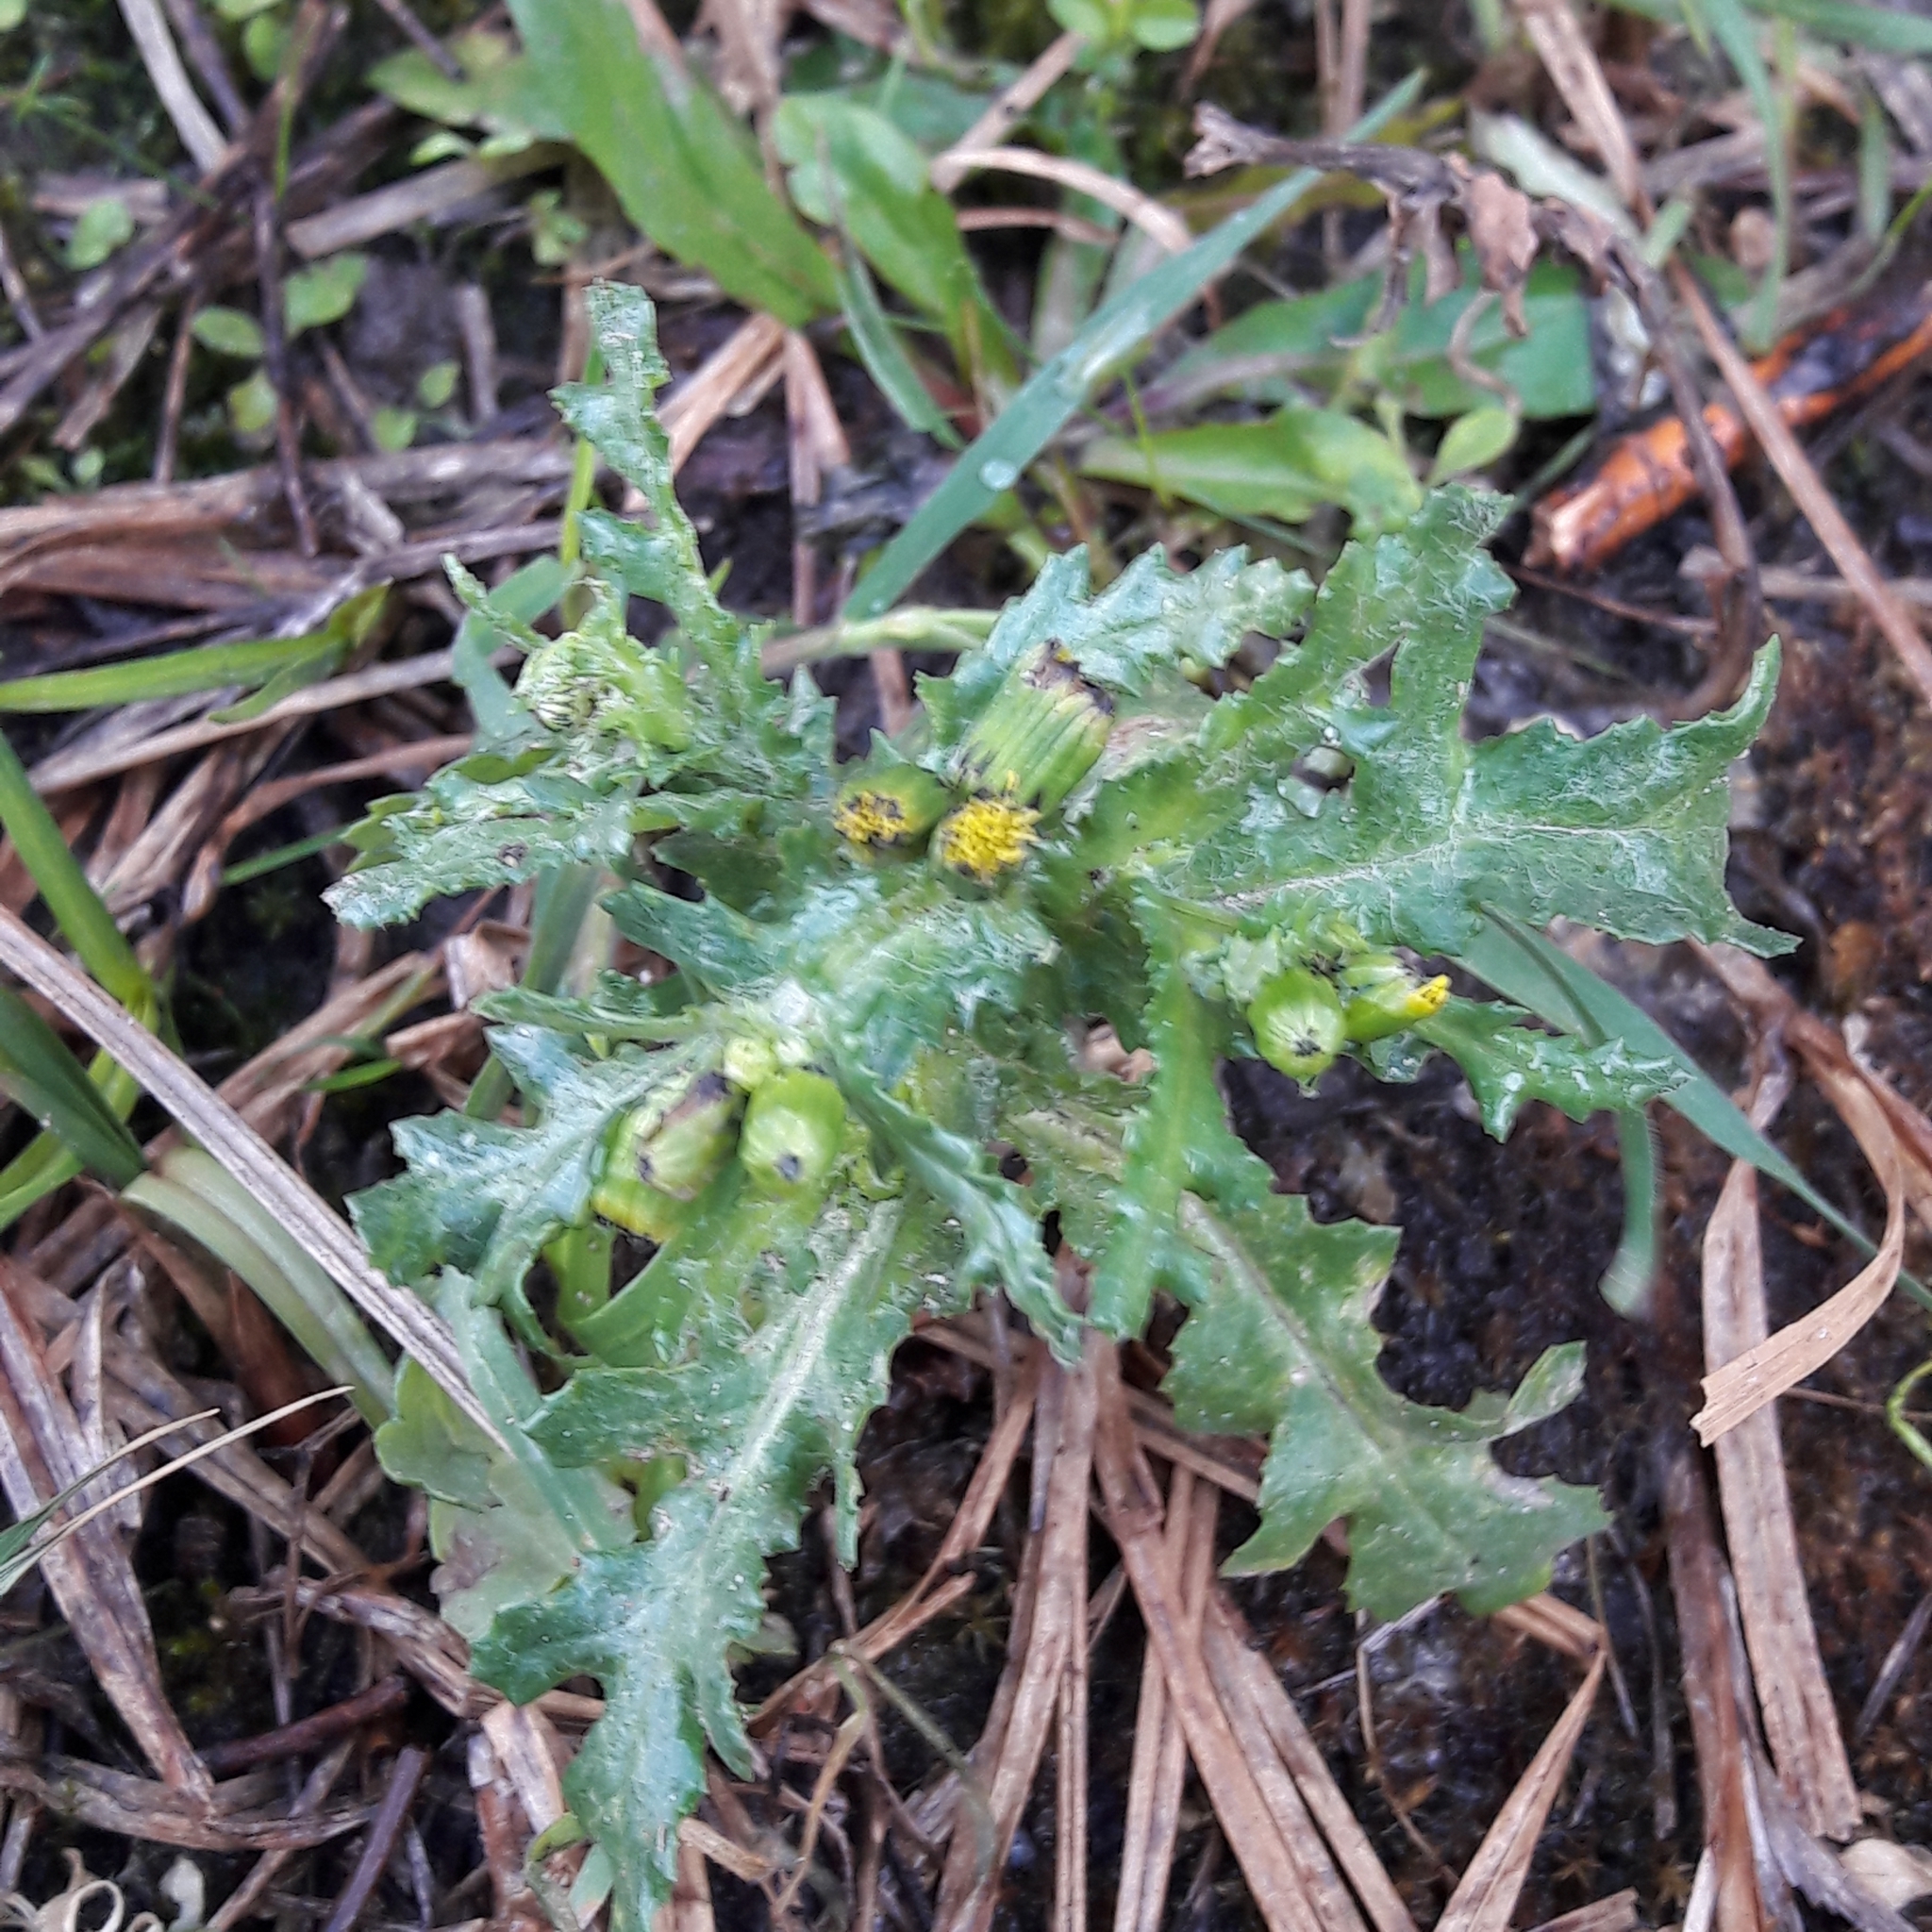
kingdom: Plantae
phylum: Tracheophyta
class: Magnoliopsida
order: Asterales
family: Asteraceae
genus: Senecio
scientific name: Senecio vulgaris
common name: Old-man-in-the-spring
